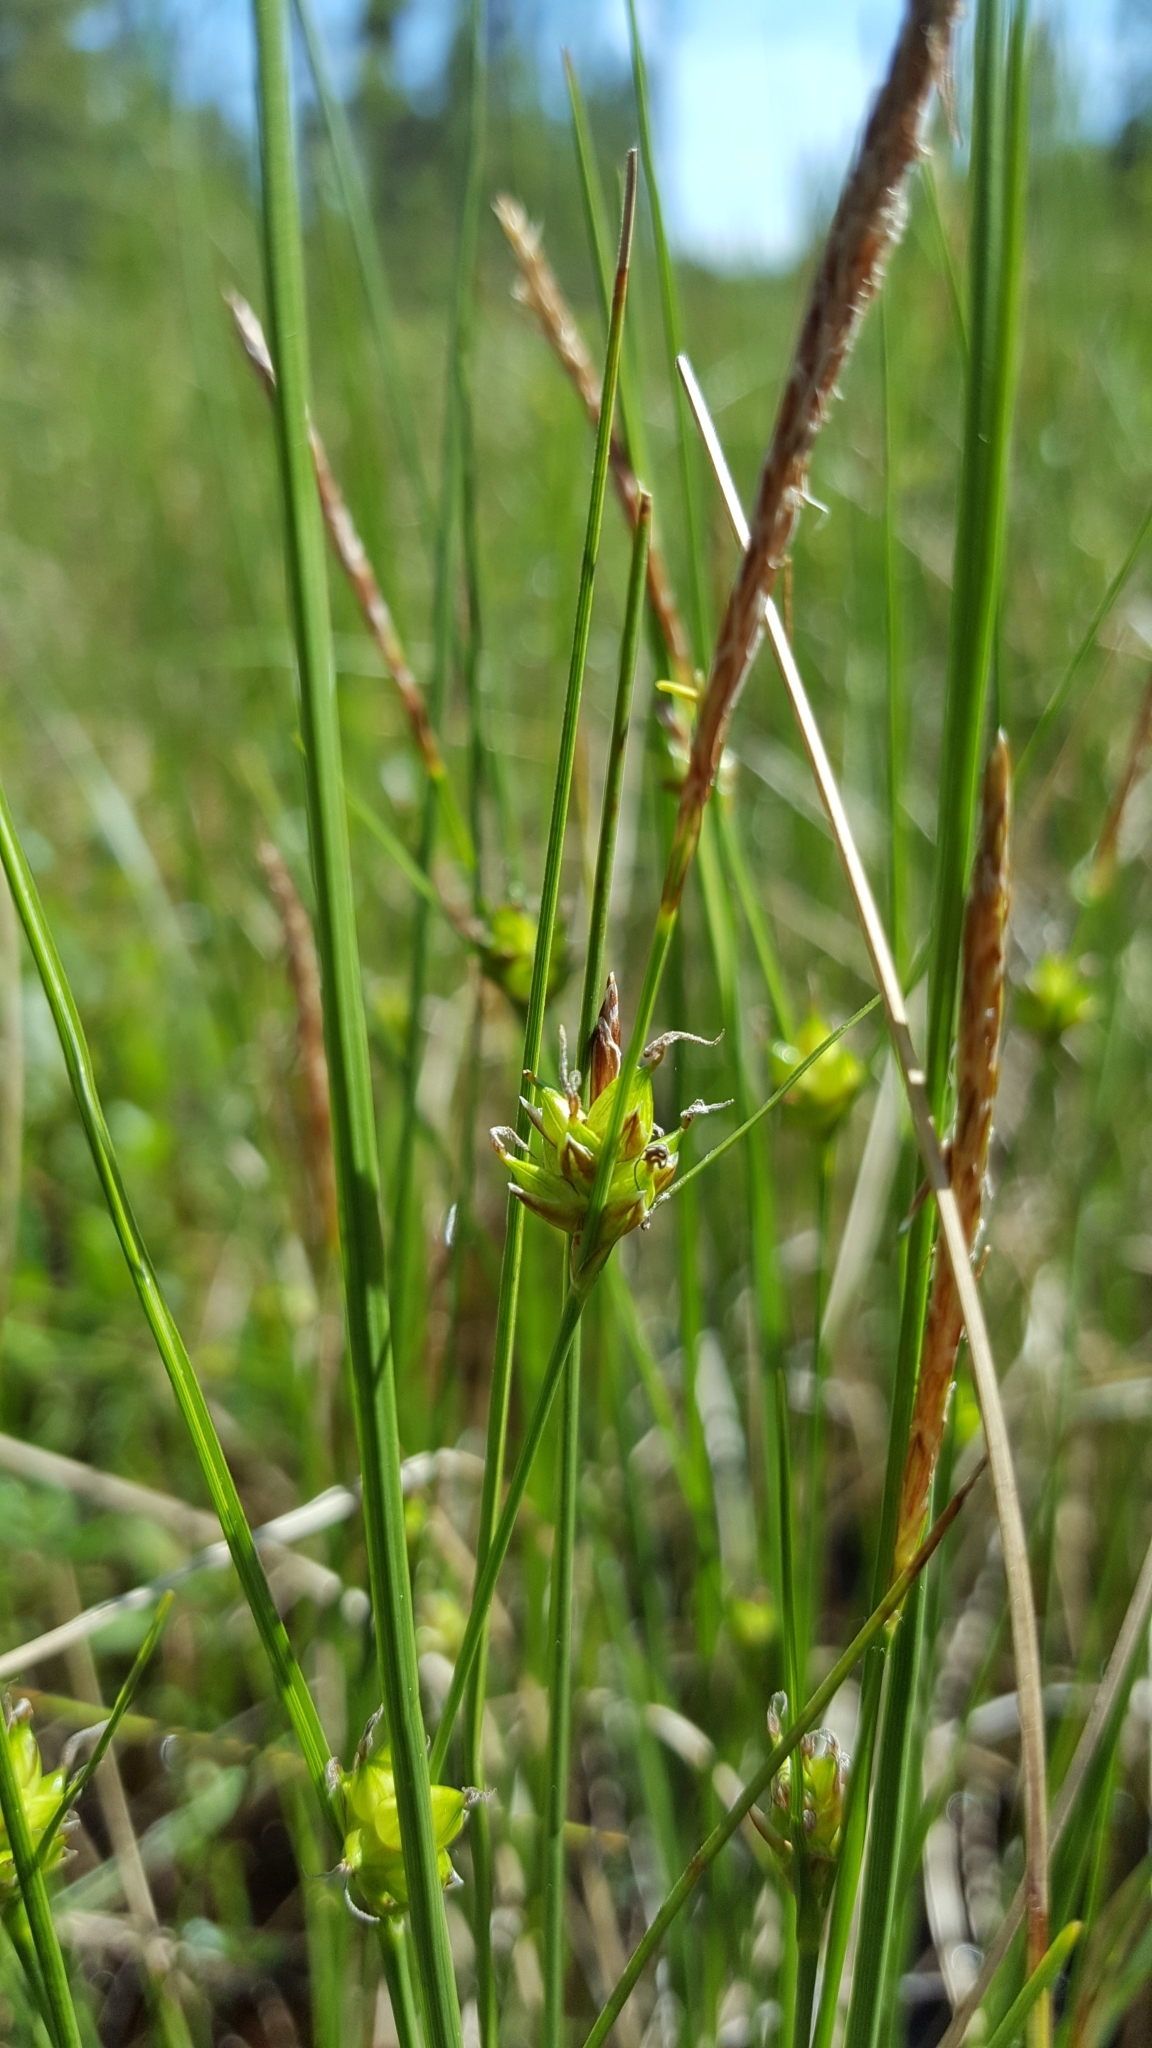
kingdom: Plantae
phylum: Tracheophyta
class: Liliopsida
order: Poales
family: Cyperaceae
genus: Carex
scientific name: Carex oligosperma
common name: Few-seed sedge
